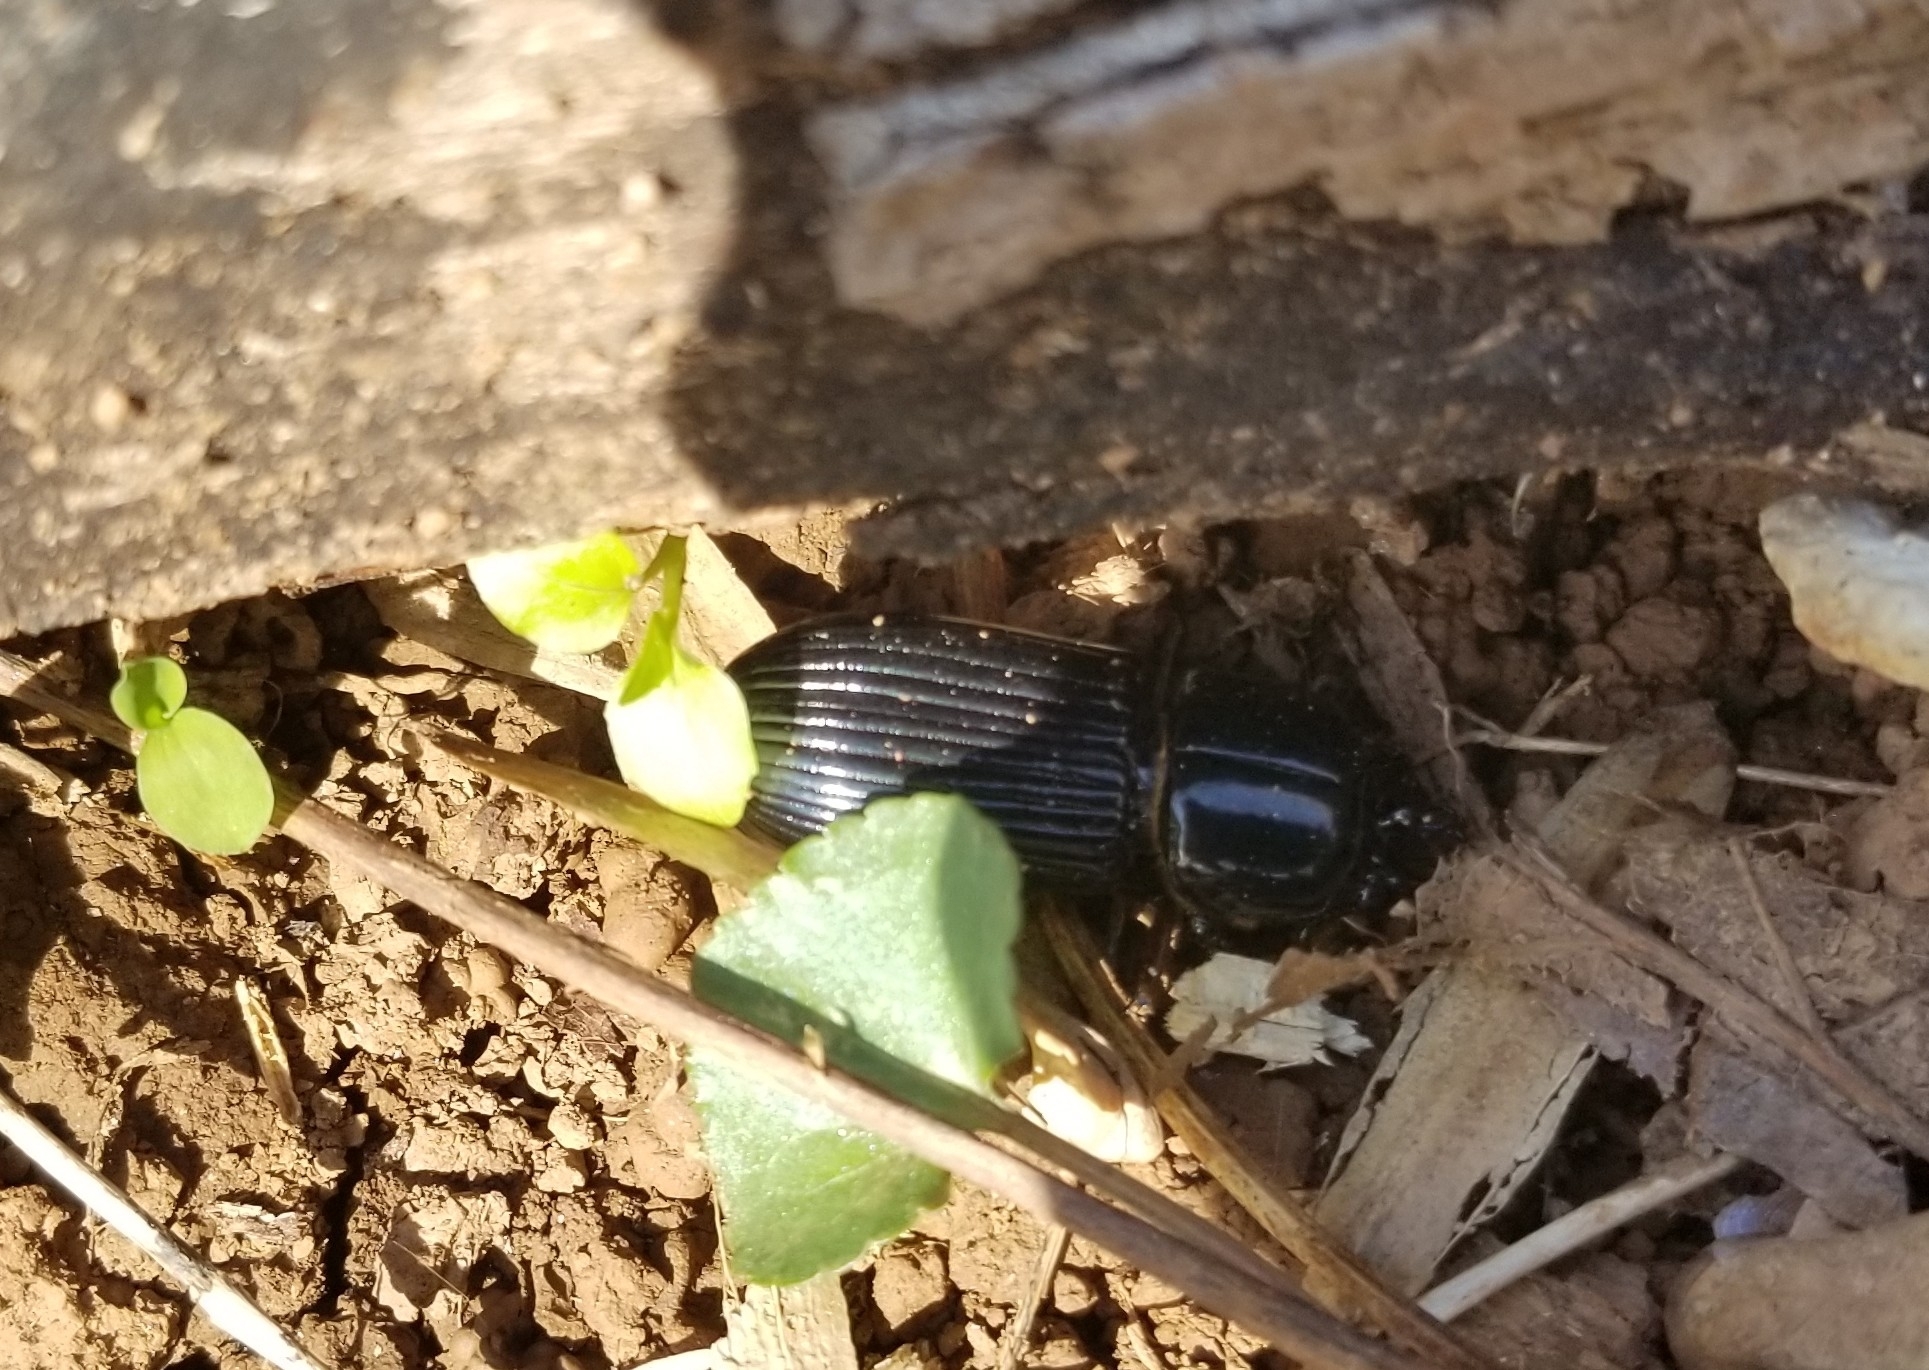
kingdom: Animalia
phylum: Arthropoda
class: Insecta
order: Coleoptera
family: Passalidae
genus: Odontotaenius
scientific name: Odontotaenius disjunctus
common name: Patent leather beetle
